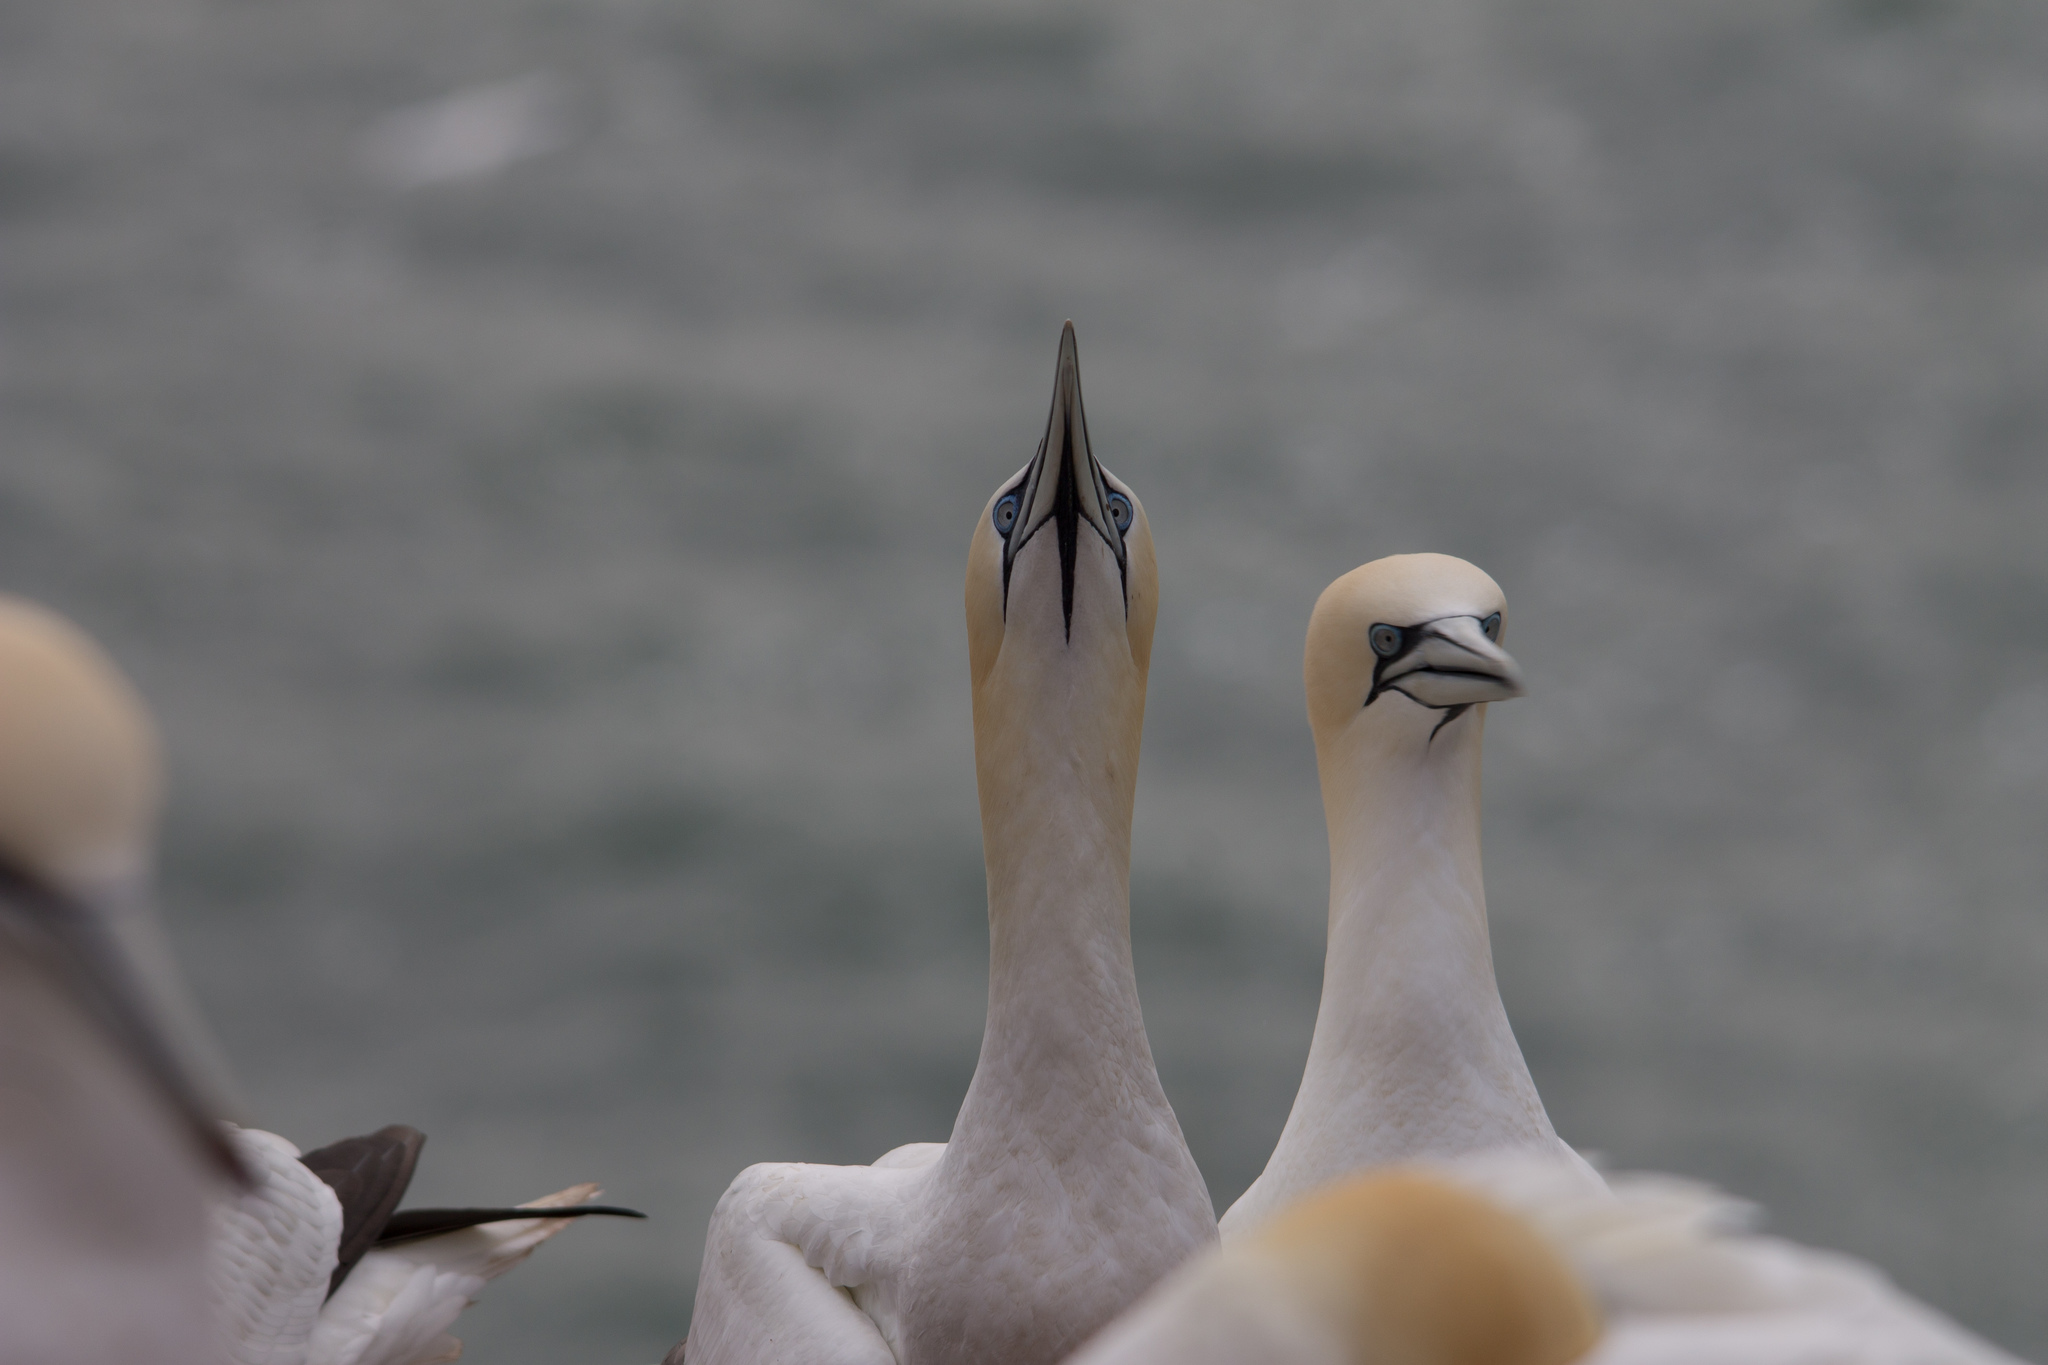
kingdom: Animalia
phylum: Chordata
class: Aves
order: Suliformes
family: Sulidae
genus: Morus
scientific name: Morus bassanus
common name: Northern gannet
